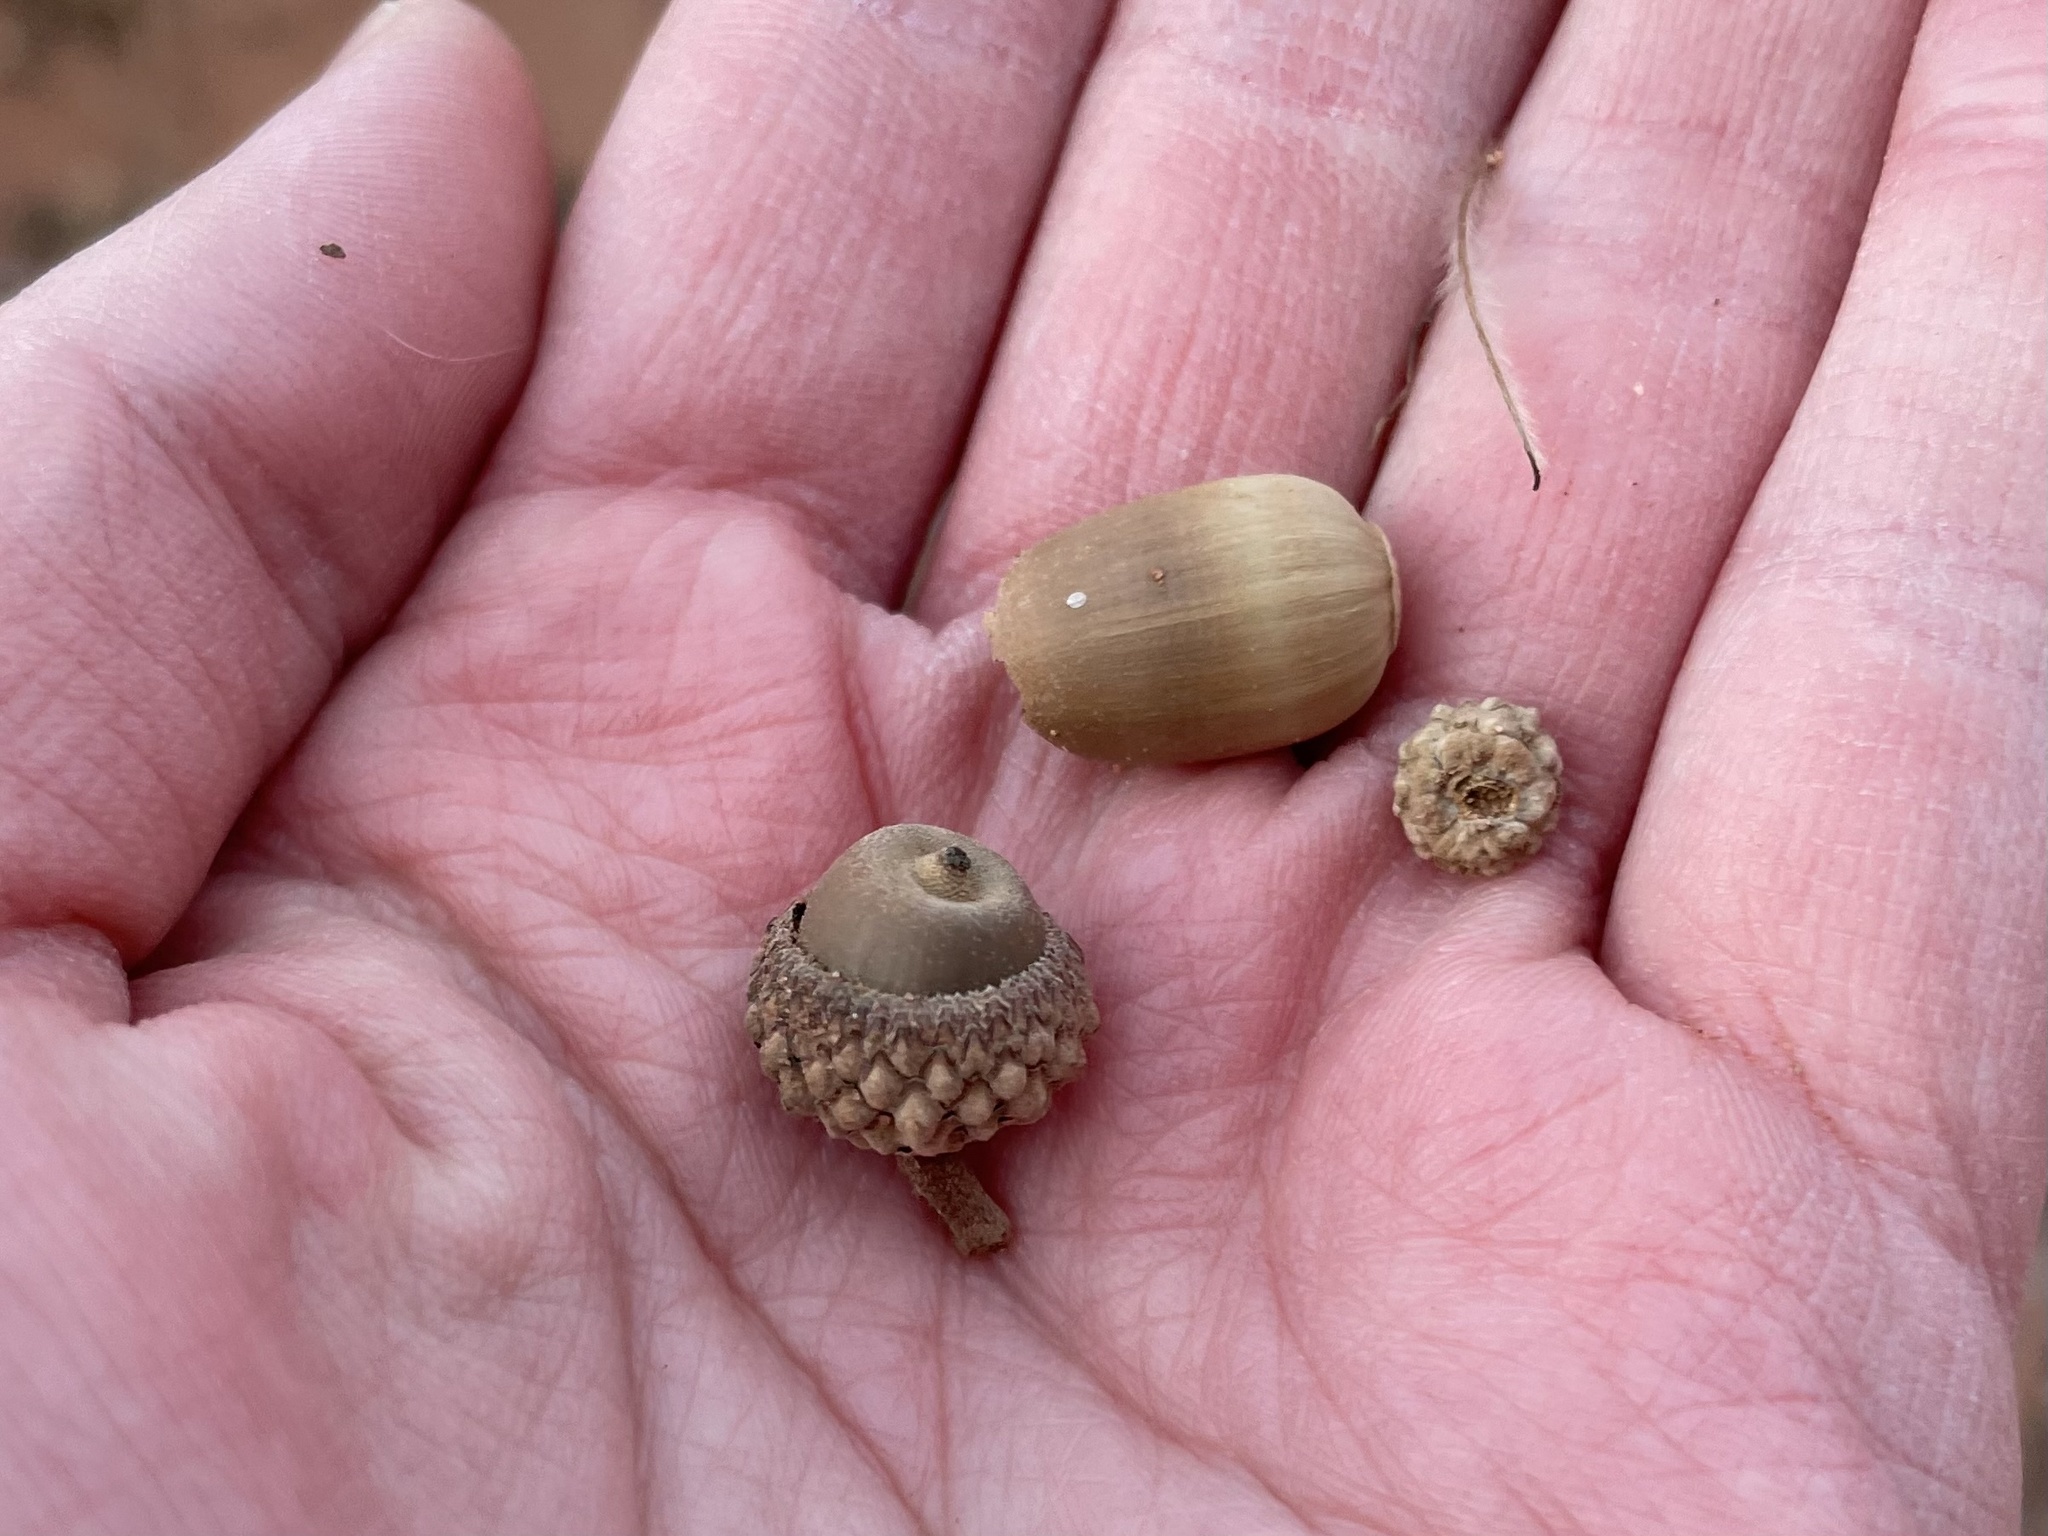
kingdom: Plantae
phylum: Tracheophyta
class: Magnoliopsida
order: Fagales
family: Fagaceae
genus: Quercus
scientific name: Quercus gambelii
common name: Gambel oak
